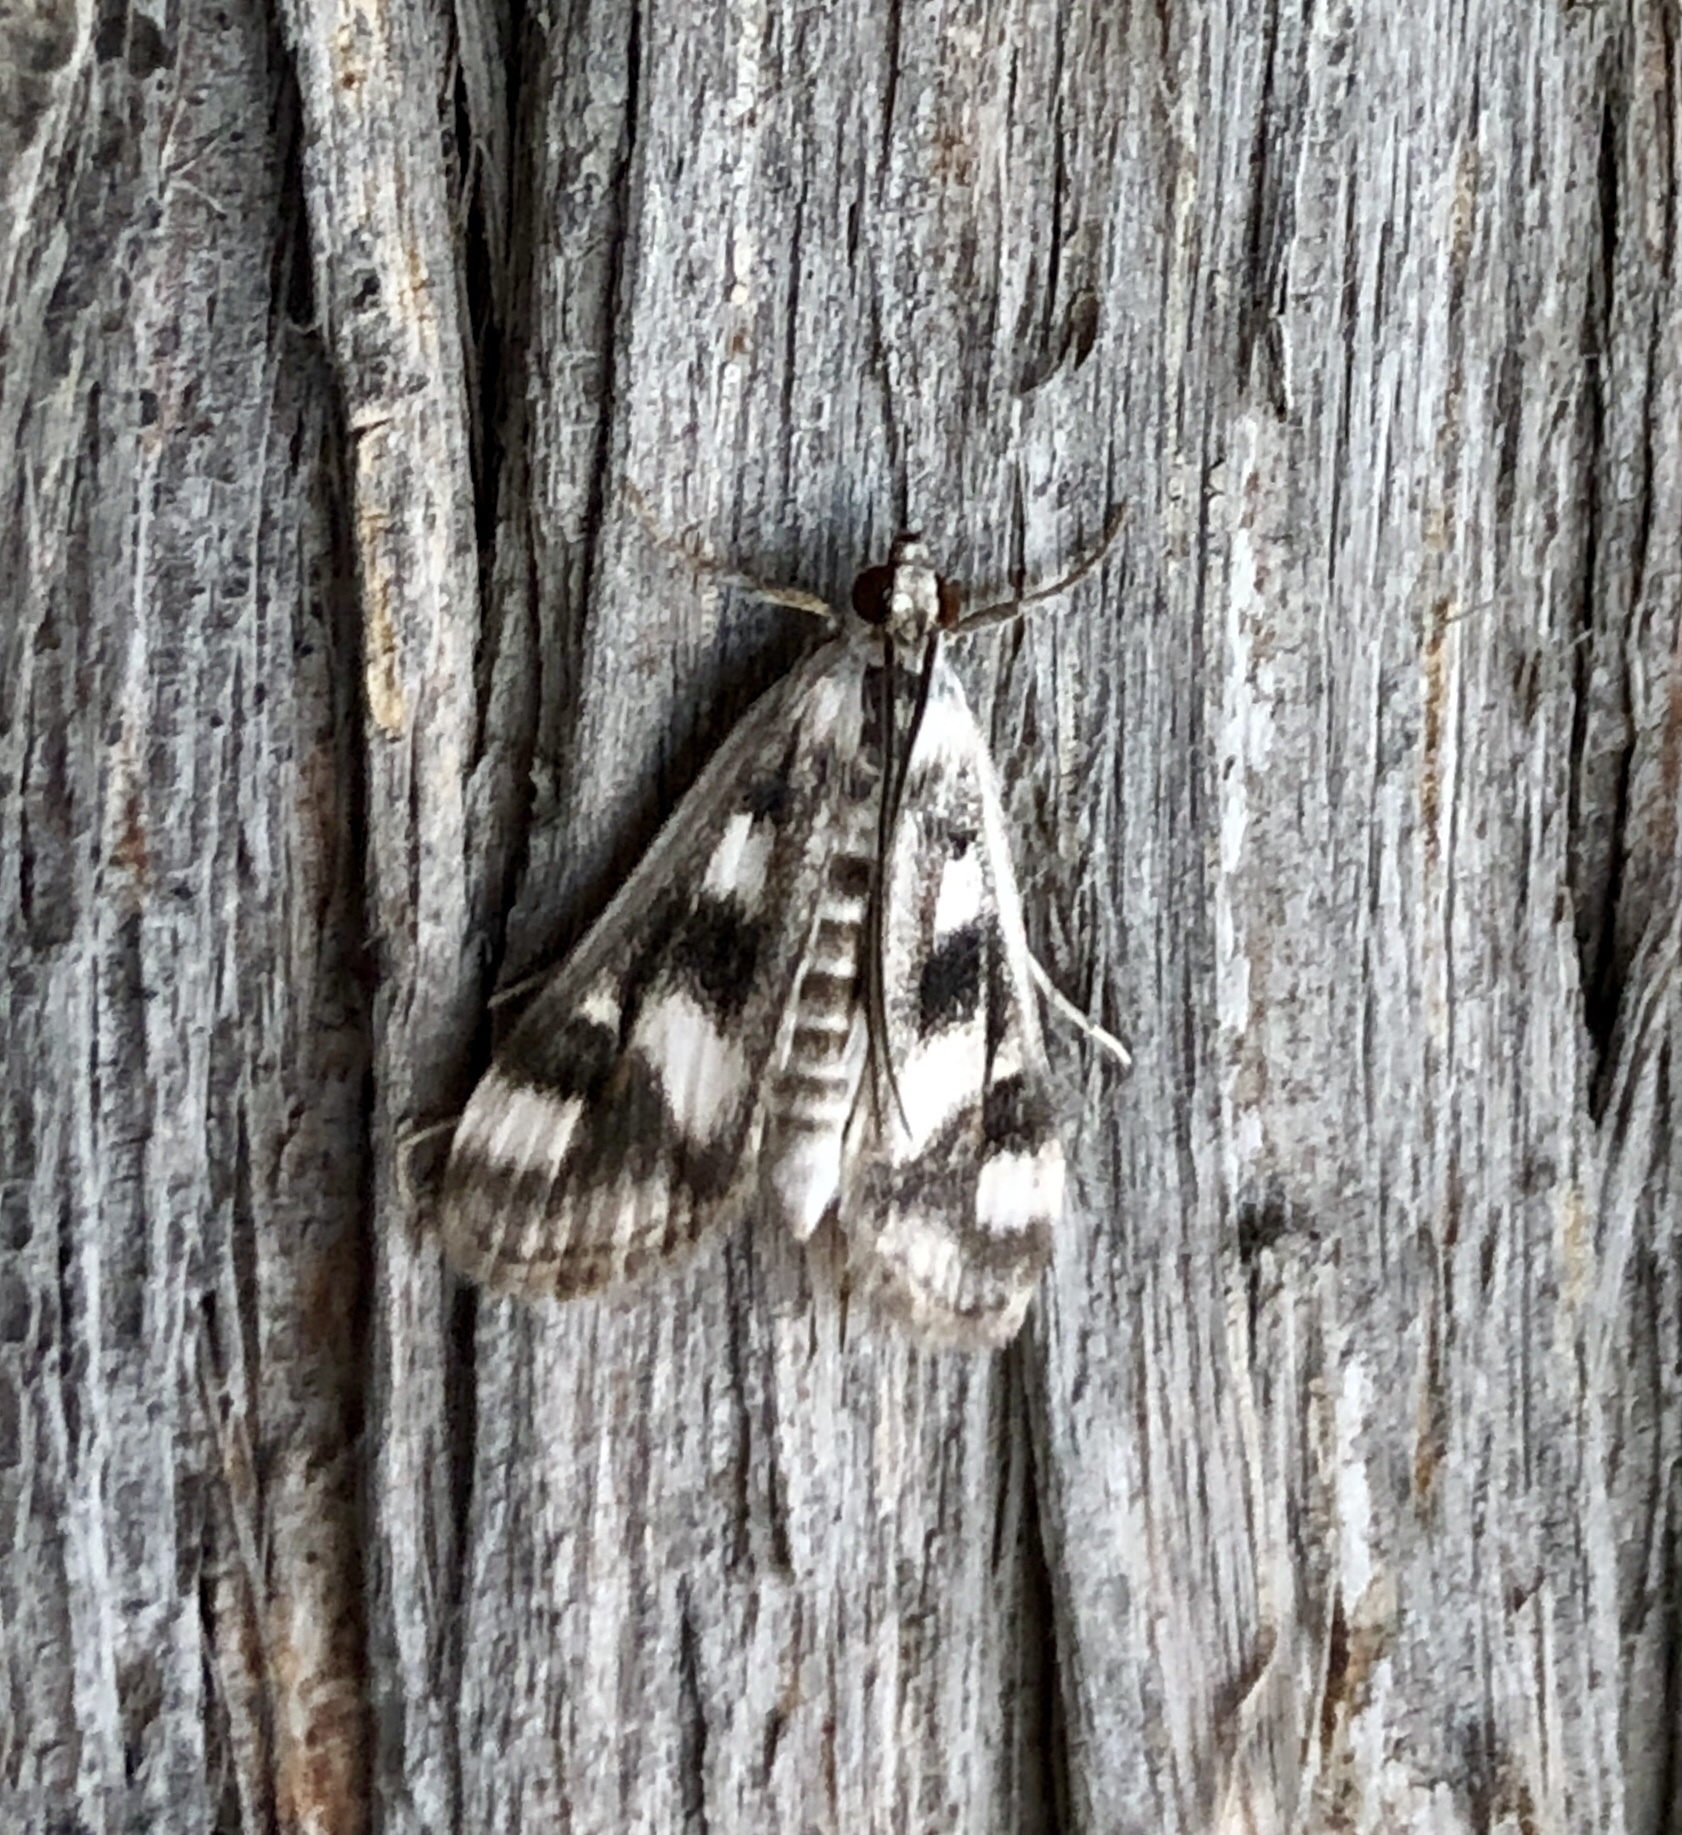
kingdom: Animalia
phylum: Arthropoda
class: Insecta
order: Lepidoptera
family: Crambidae
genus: Parapoynx
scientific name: Parapoynx maculalis
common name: Polymorphic pondweed moth
